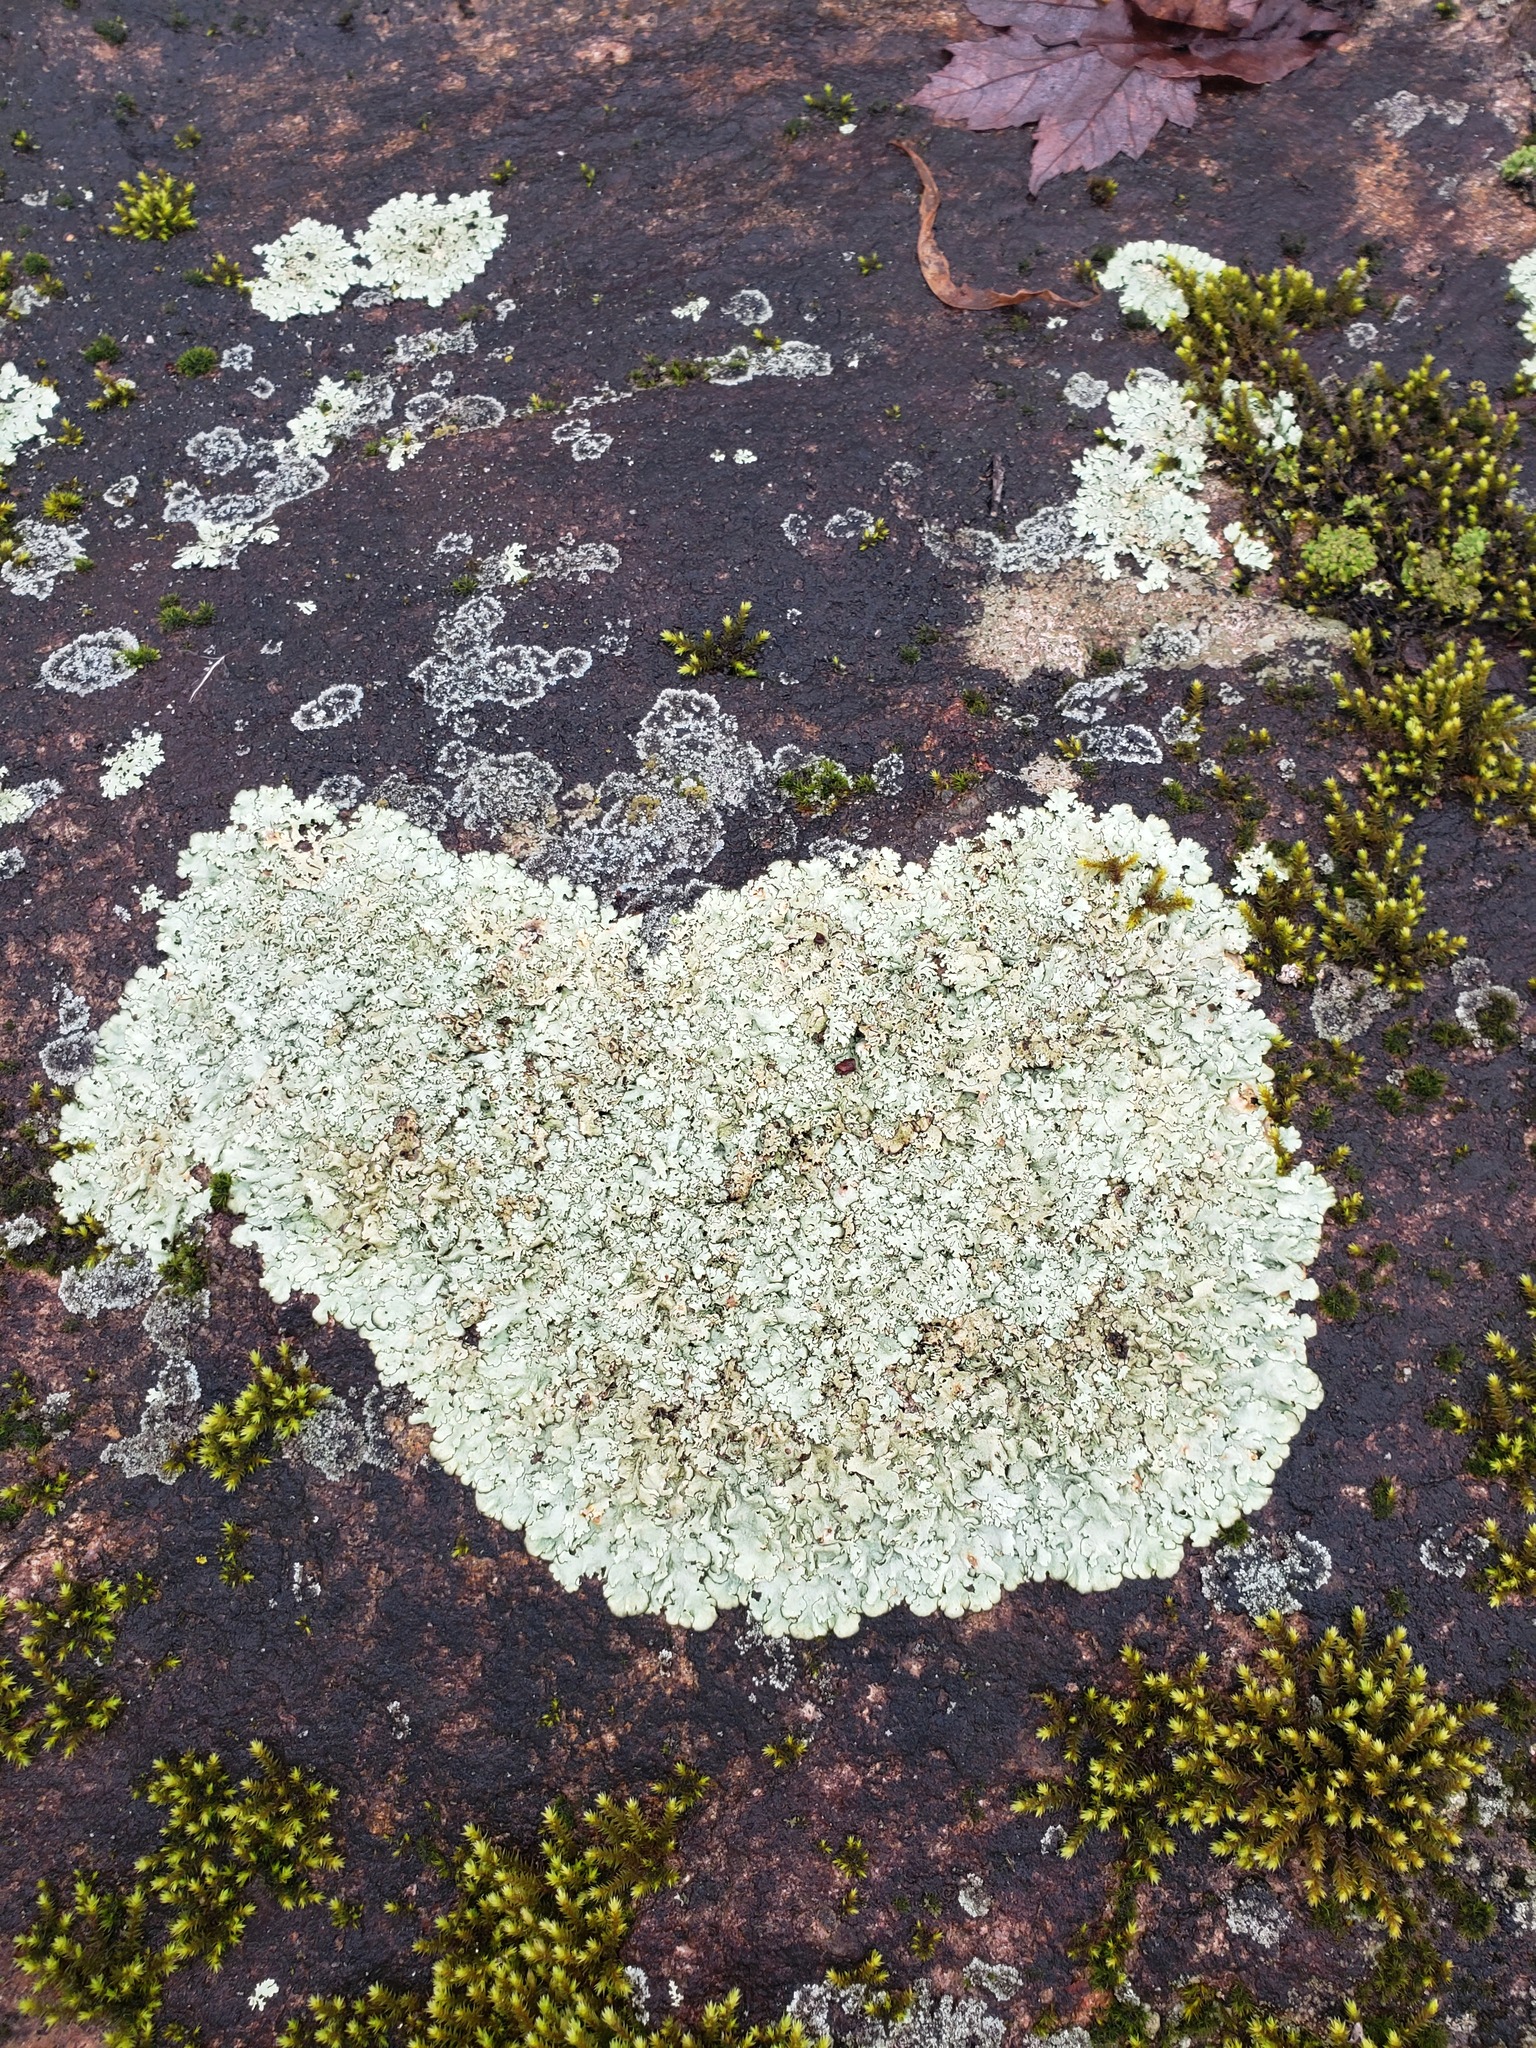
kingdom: Fungi
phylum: Ascomycota
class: Lecanoromycetes
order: Lecanorales
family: Parmeliaceae
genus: Xanthoparmelia
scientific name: Xanthoparmelia cumberlandia
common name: Cumberland rock shield
